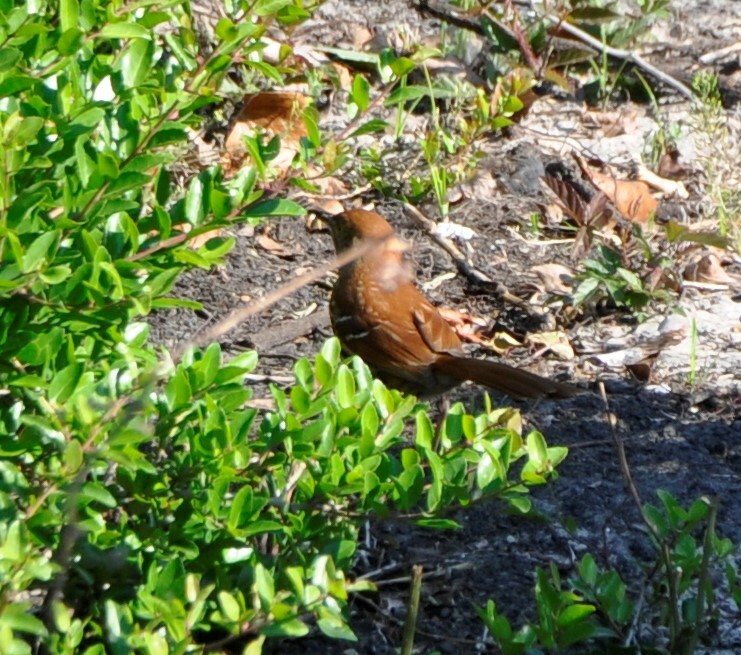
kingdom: Animalia
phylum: Chordata
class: Aves
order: Passeriformes
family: Mimidae
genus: Toxostoma
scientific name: Toxostoma rufum
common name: Brown thrasher
